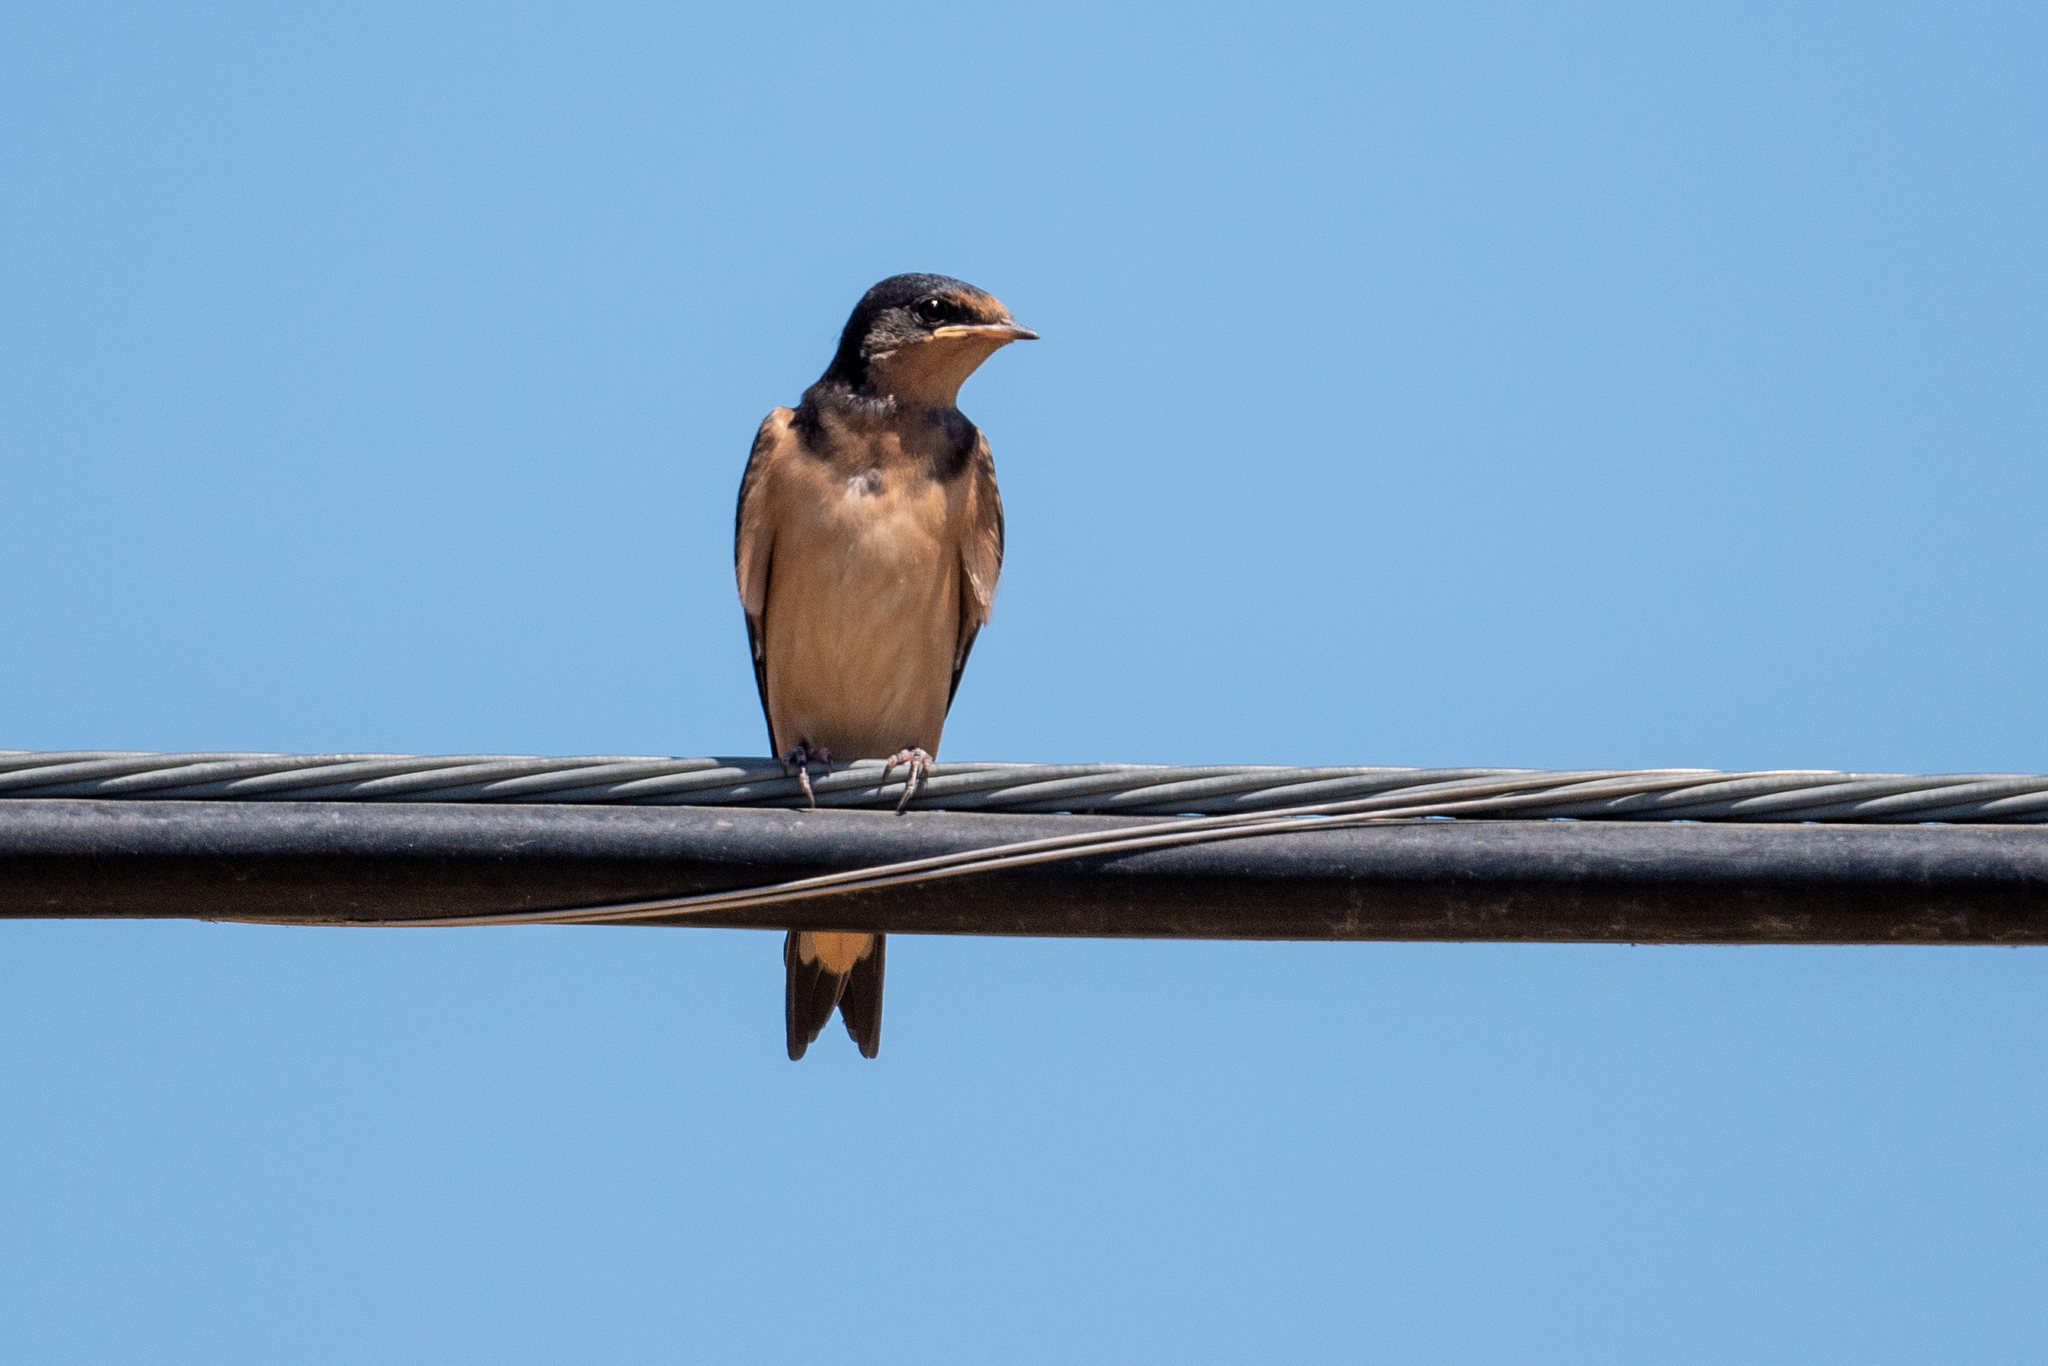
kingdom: Animalia
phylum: Chordata
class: Aves
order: Passeriformes
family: Hirundinidae
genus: Hirundo
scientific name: Hirundo rustica
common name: Barn swallow
